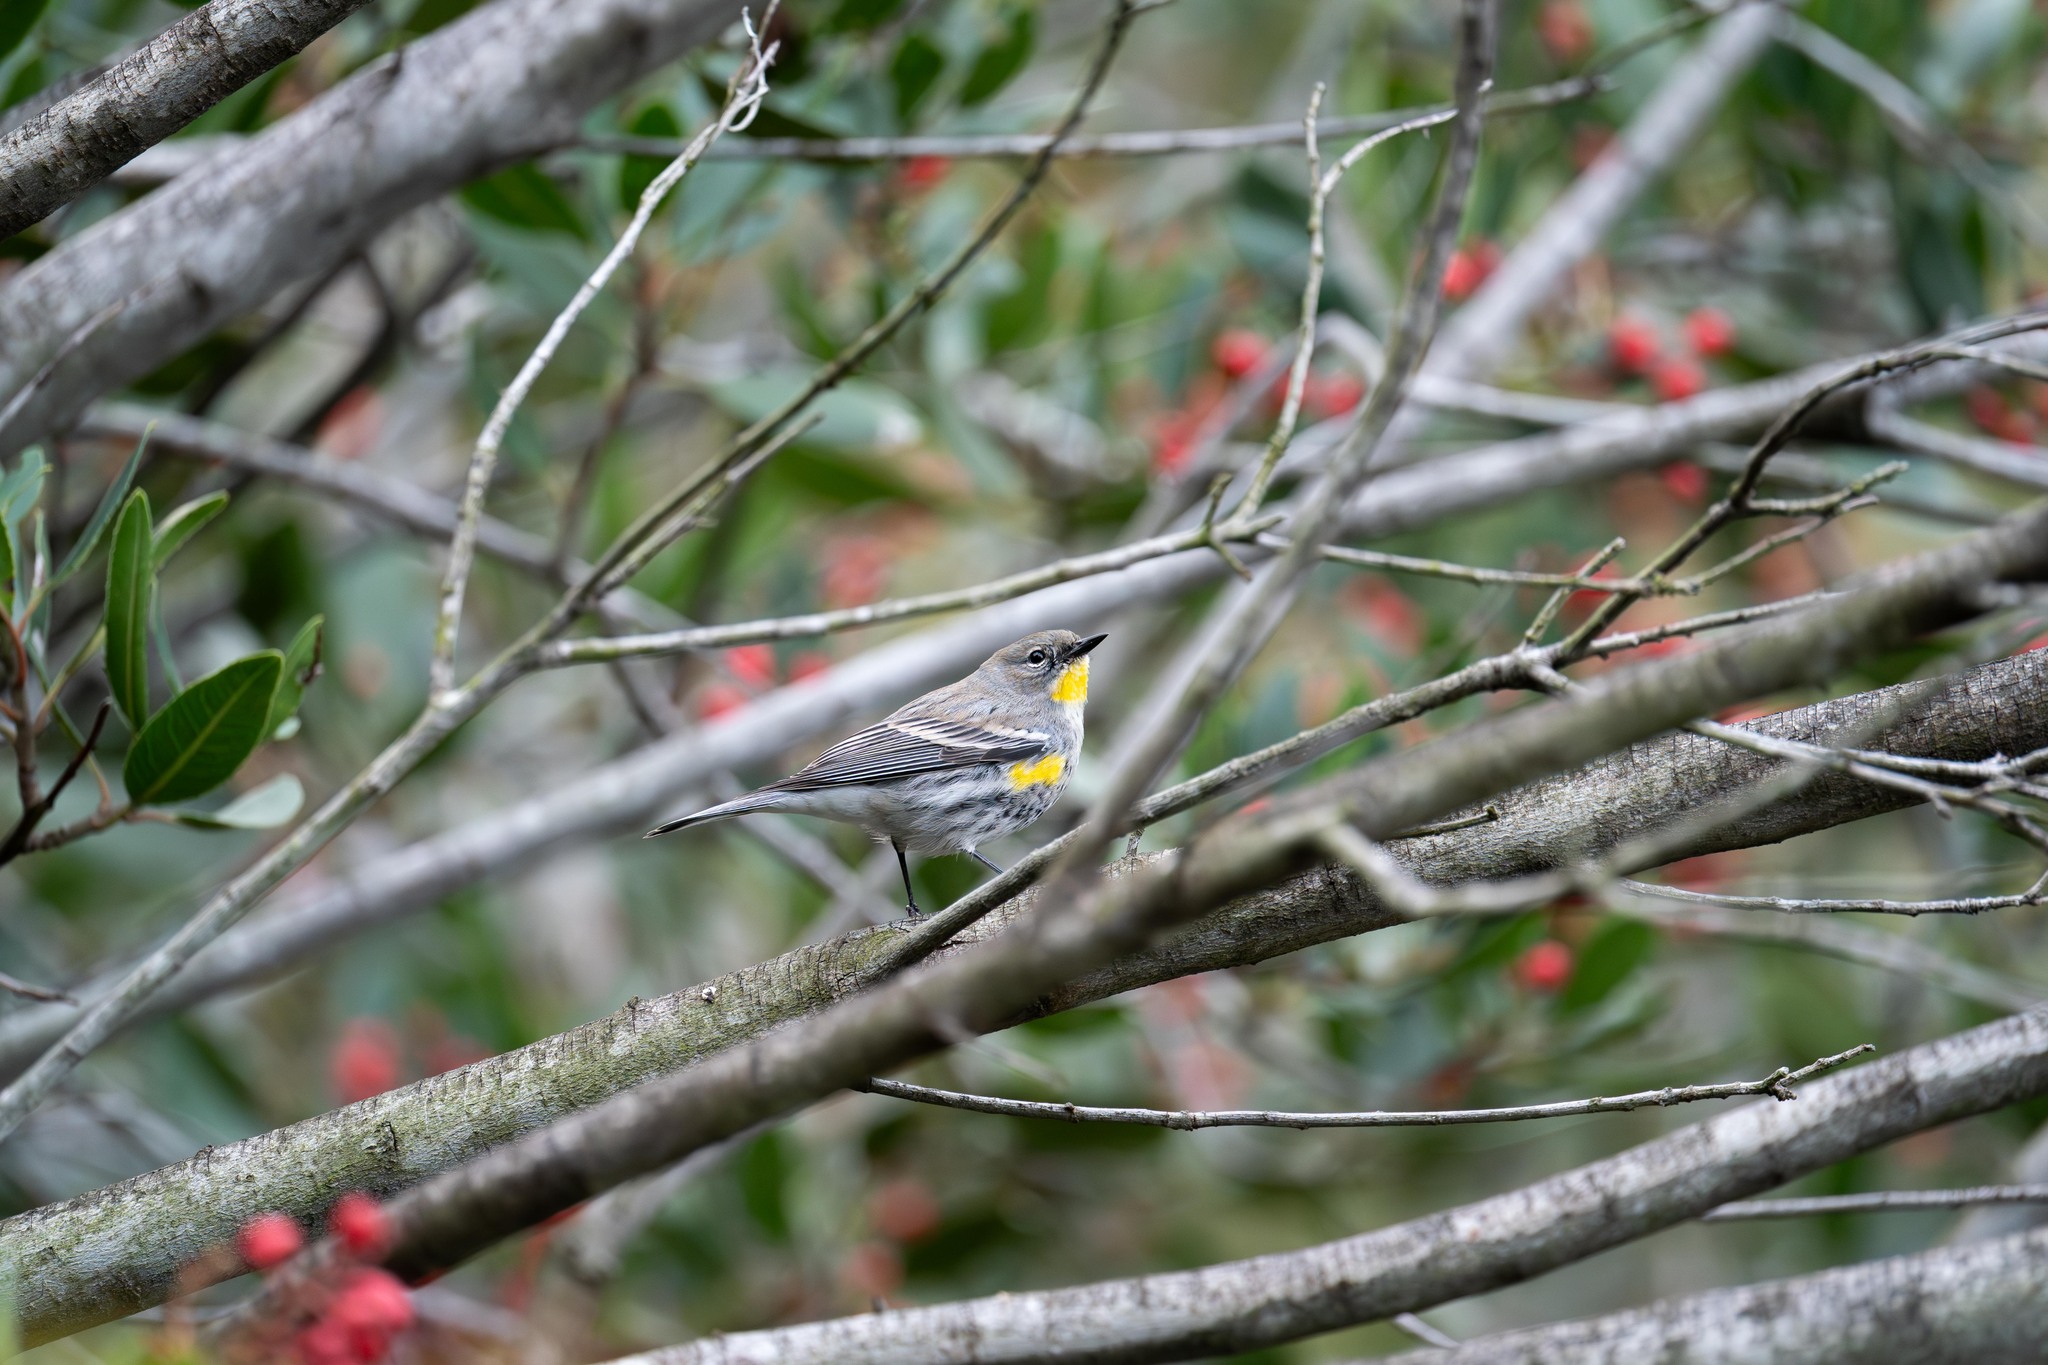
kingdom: Animalia
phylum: Chordata
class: Aves
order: Passeriformes
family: Parulidae
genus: Setophaga
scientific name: Setophaga coronata
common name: Myrtle warbler
